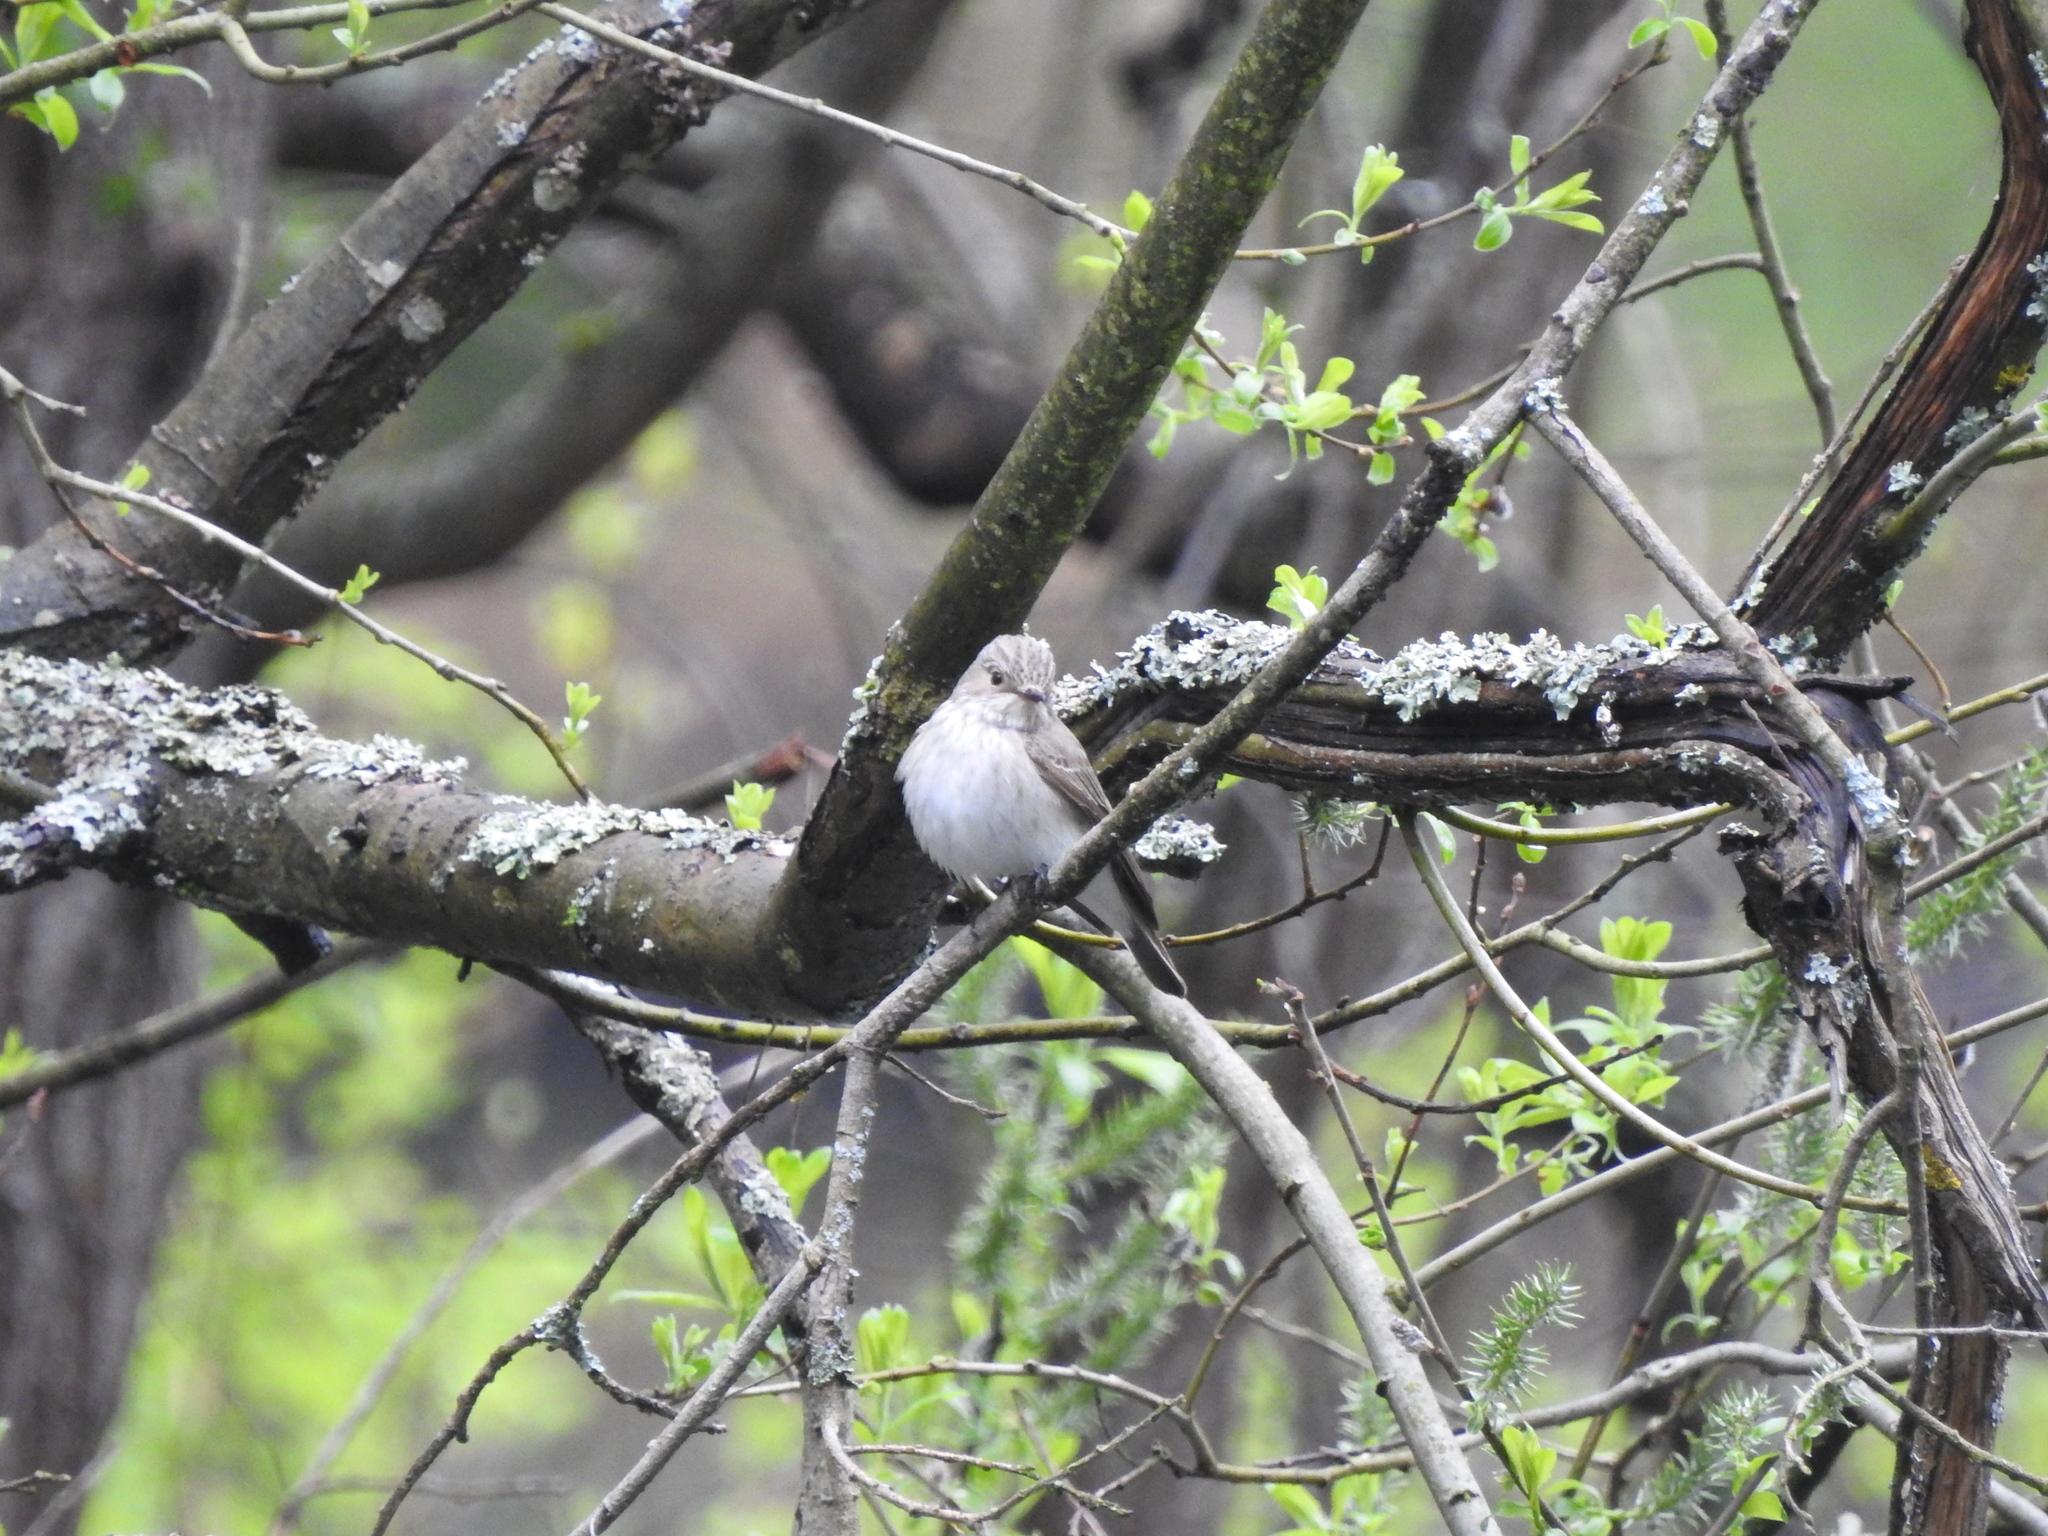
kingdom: Animalia
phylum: Chordata
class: Aves
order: Passeriformes
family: Muscicapidae
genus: Muscicapa
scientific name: Muscicapa striata
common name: Spotted flycatcher
